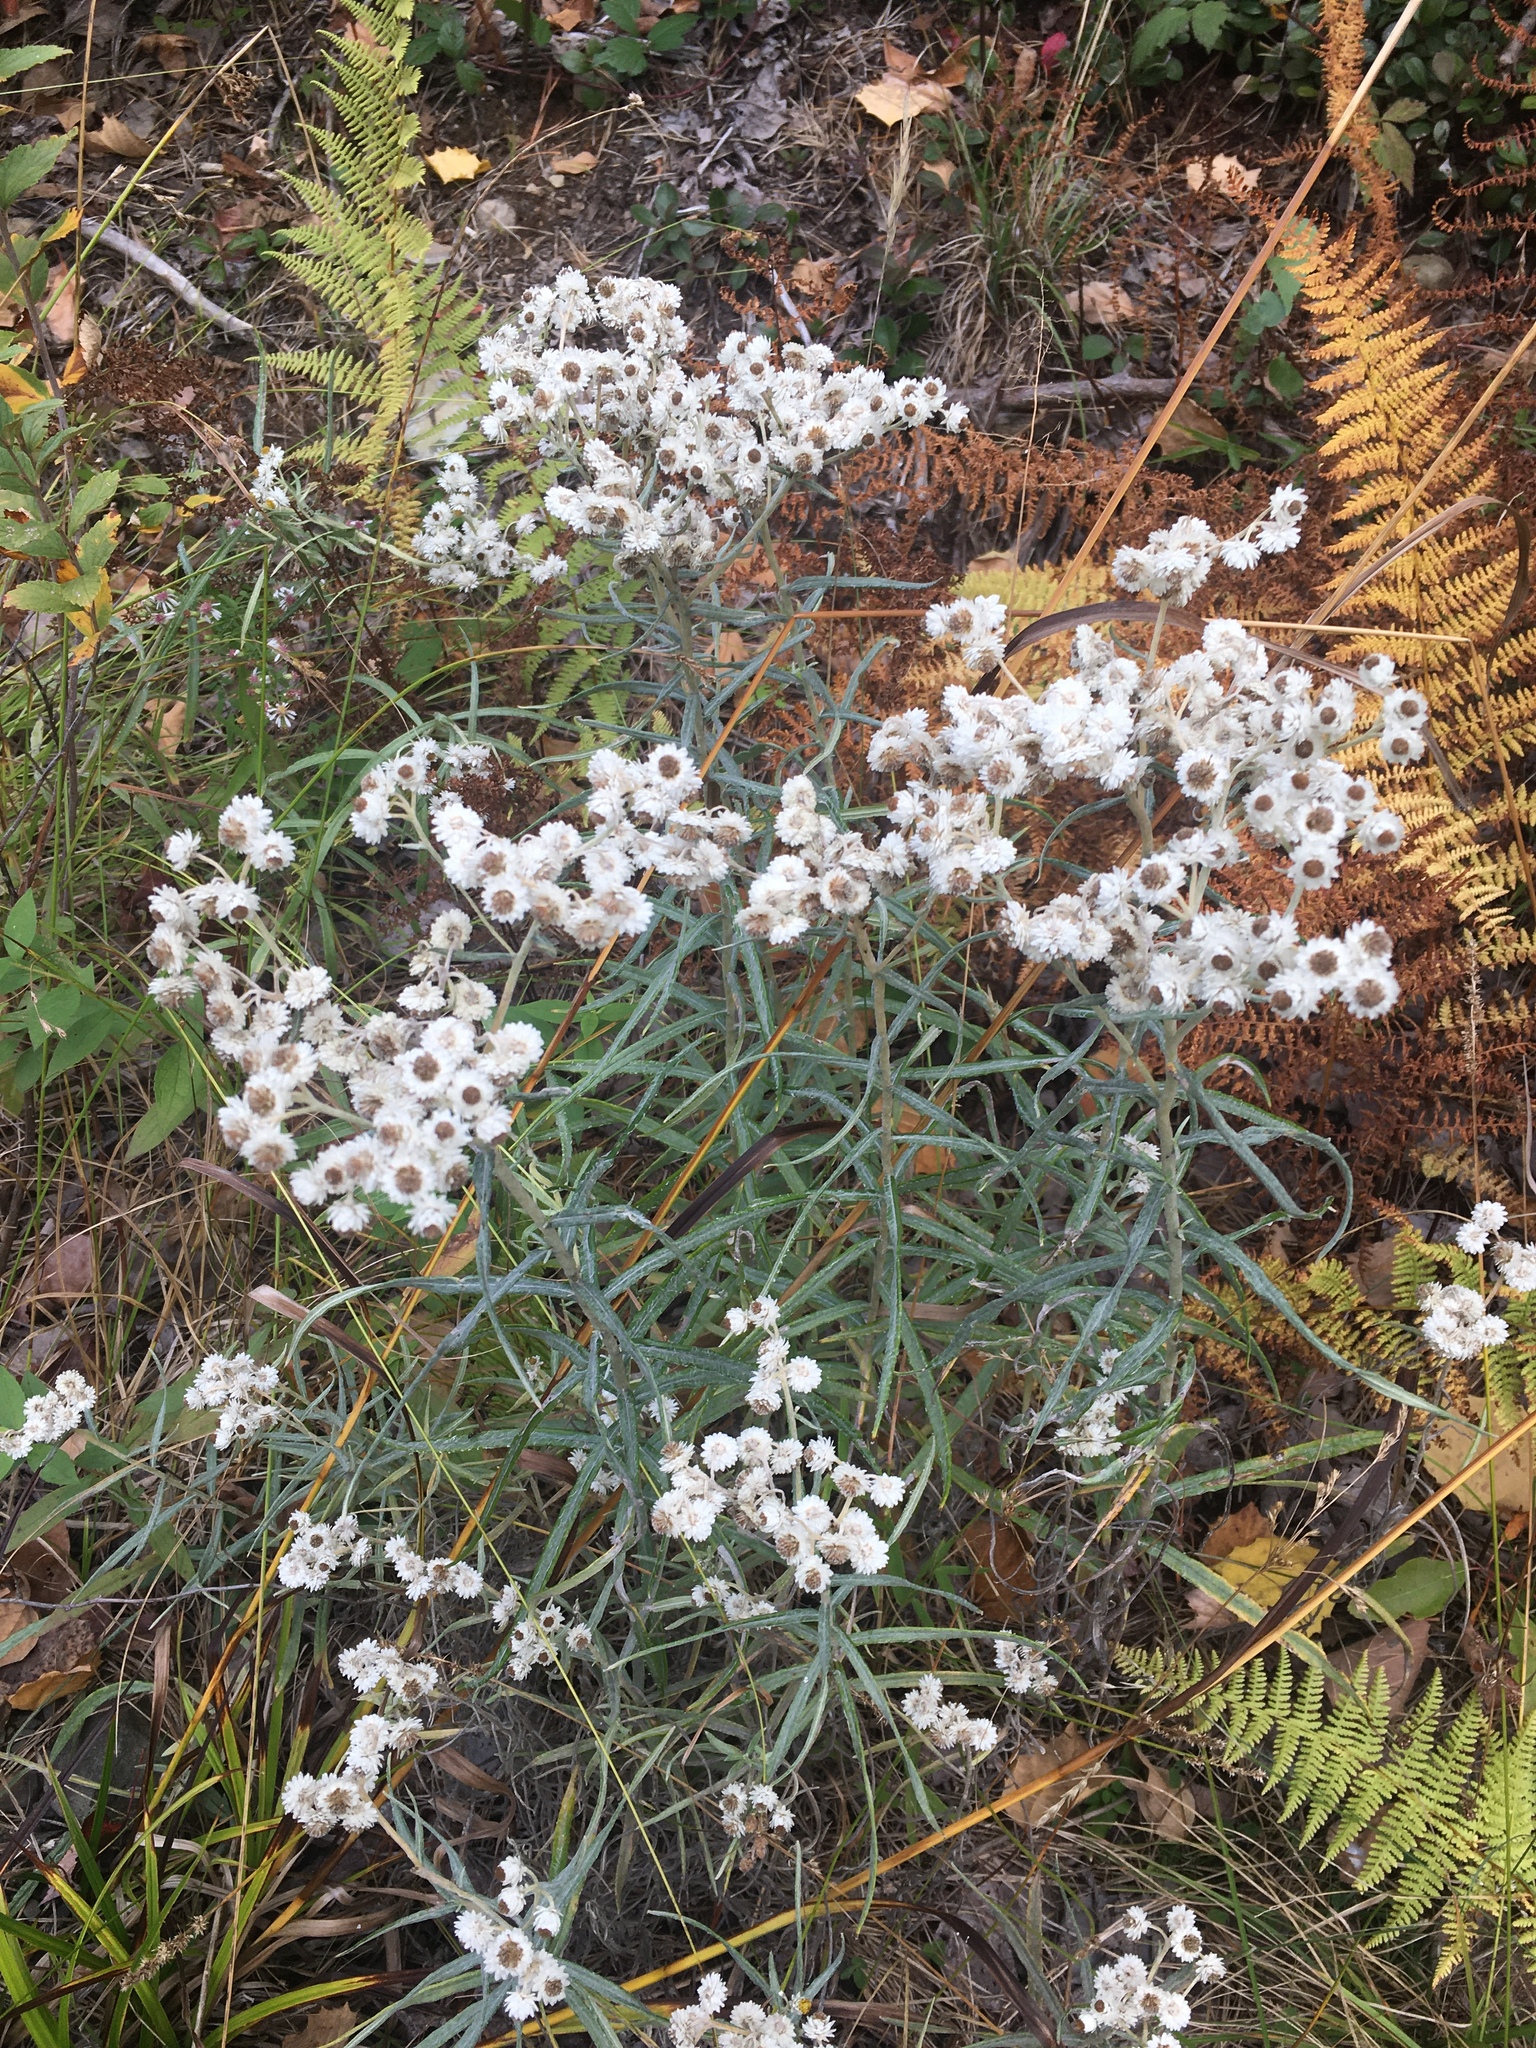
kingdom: Plantae
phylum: Tracheophyta
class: Magnoliopsida
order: Asterales
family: Asteraceae
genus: Anaphalis
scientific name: Anaphalis margaritacea
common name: Pearly everlasting
